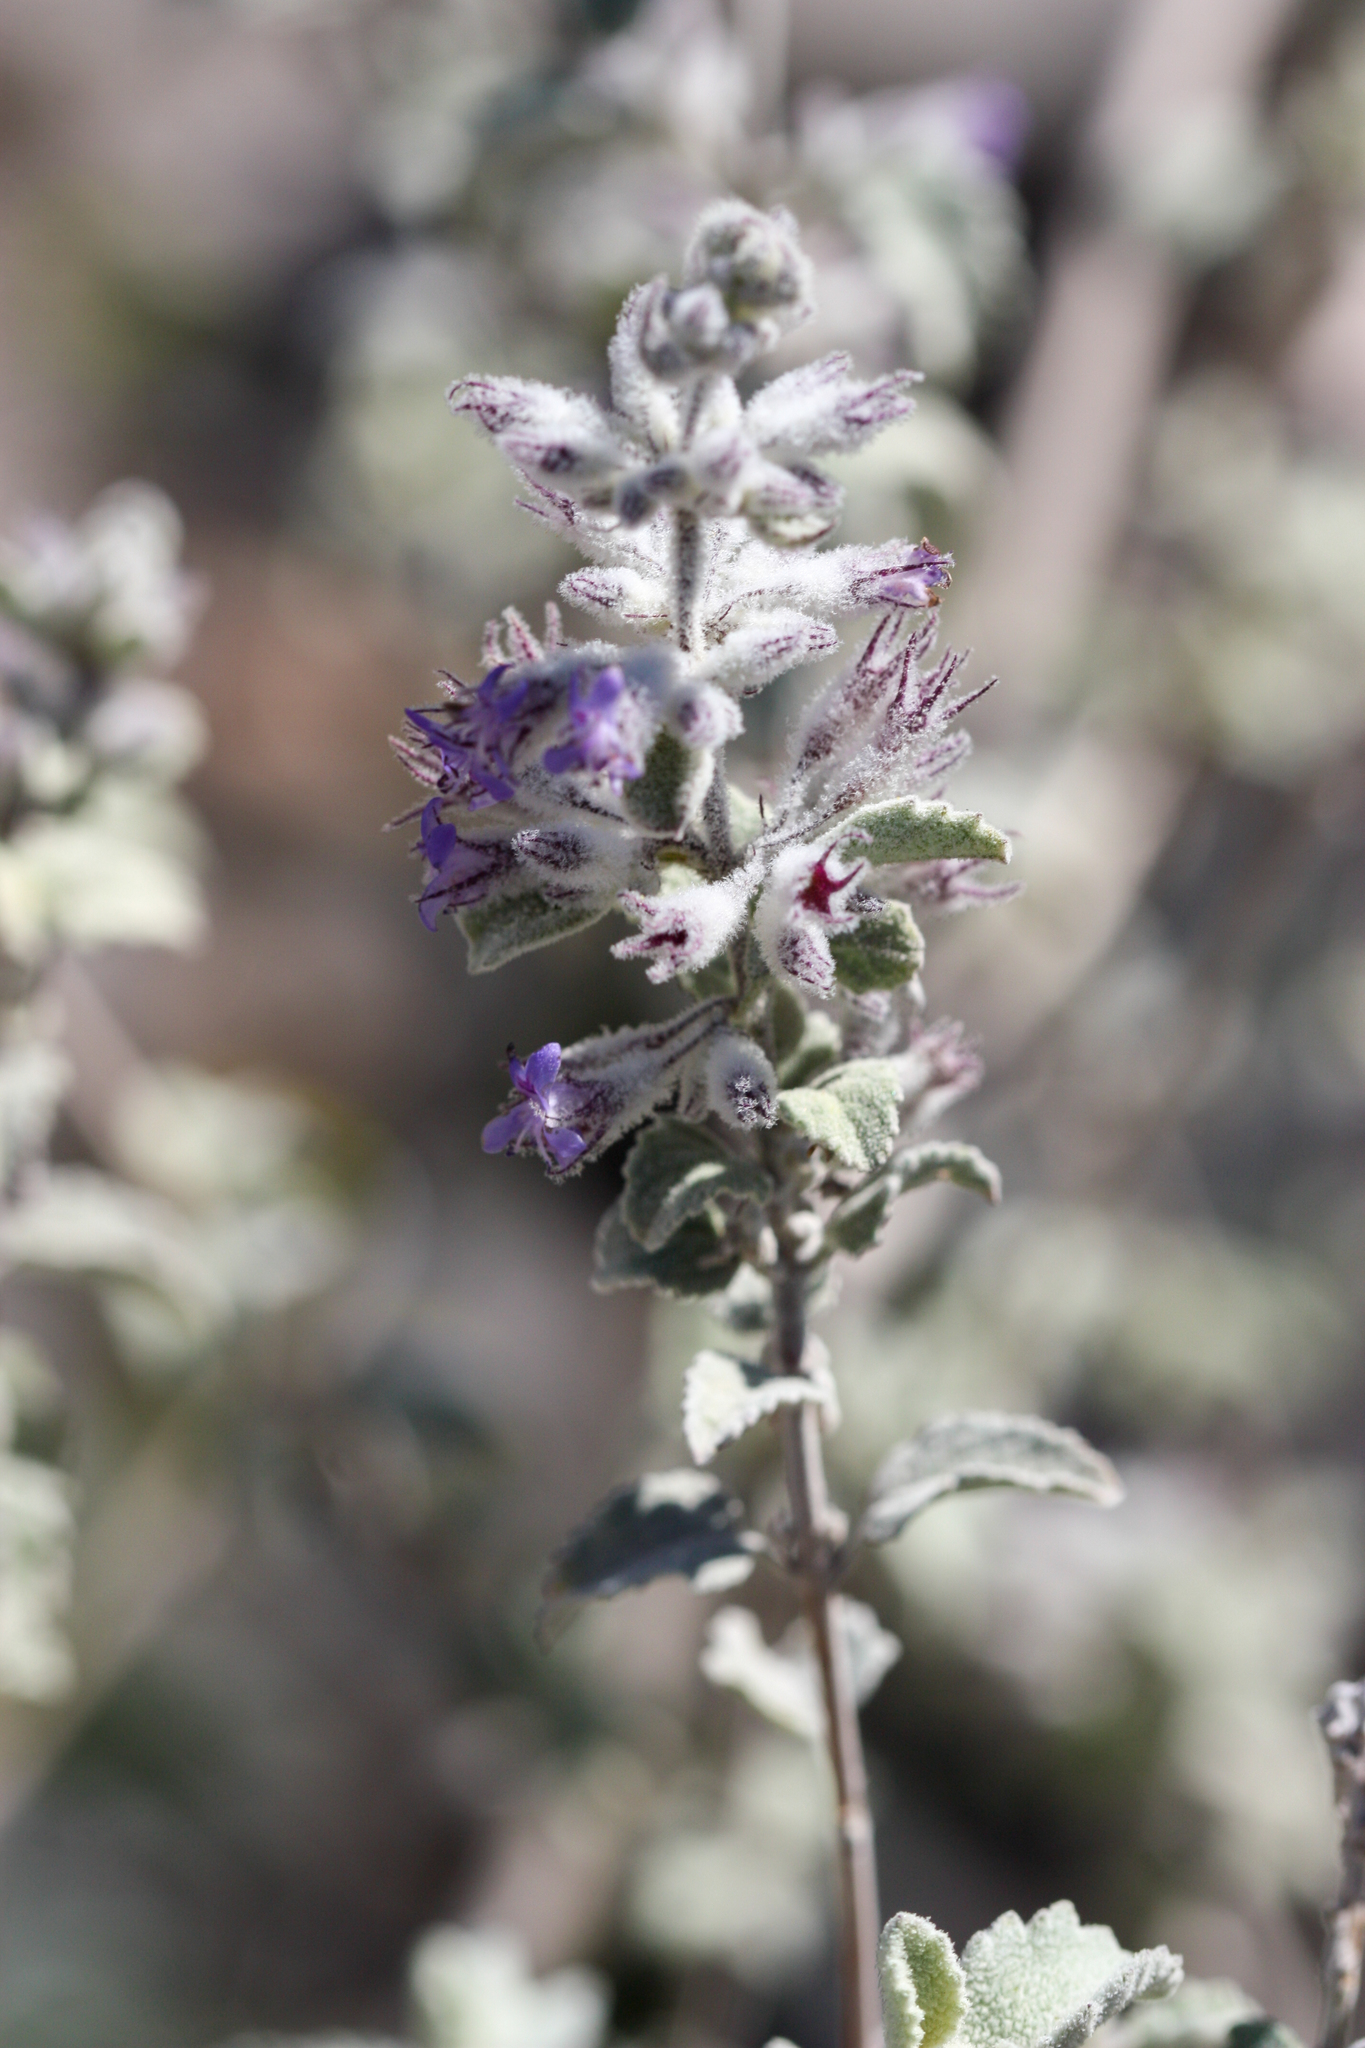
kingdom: Plantae
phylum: Tracheophyta
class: Magnoliopsida
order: Lamiales
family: Lamiaceae
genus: Condea
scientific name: Condea emoryi
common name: Chia
